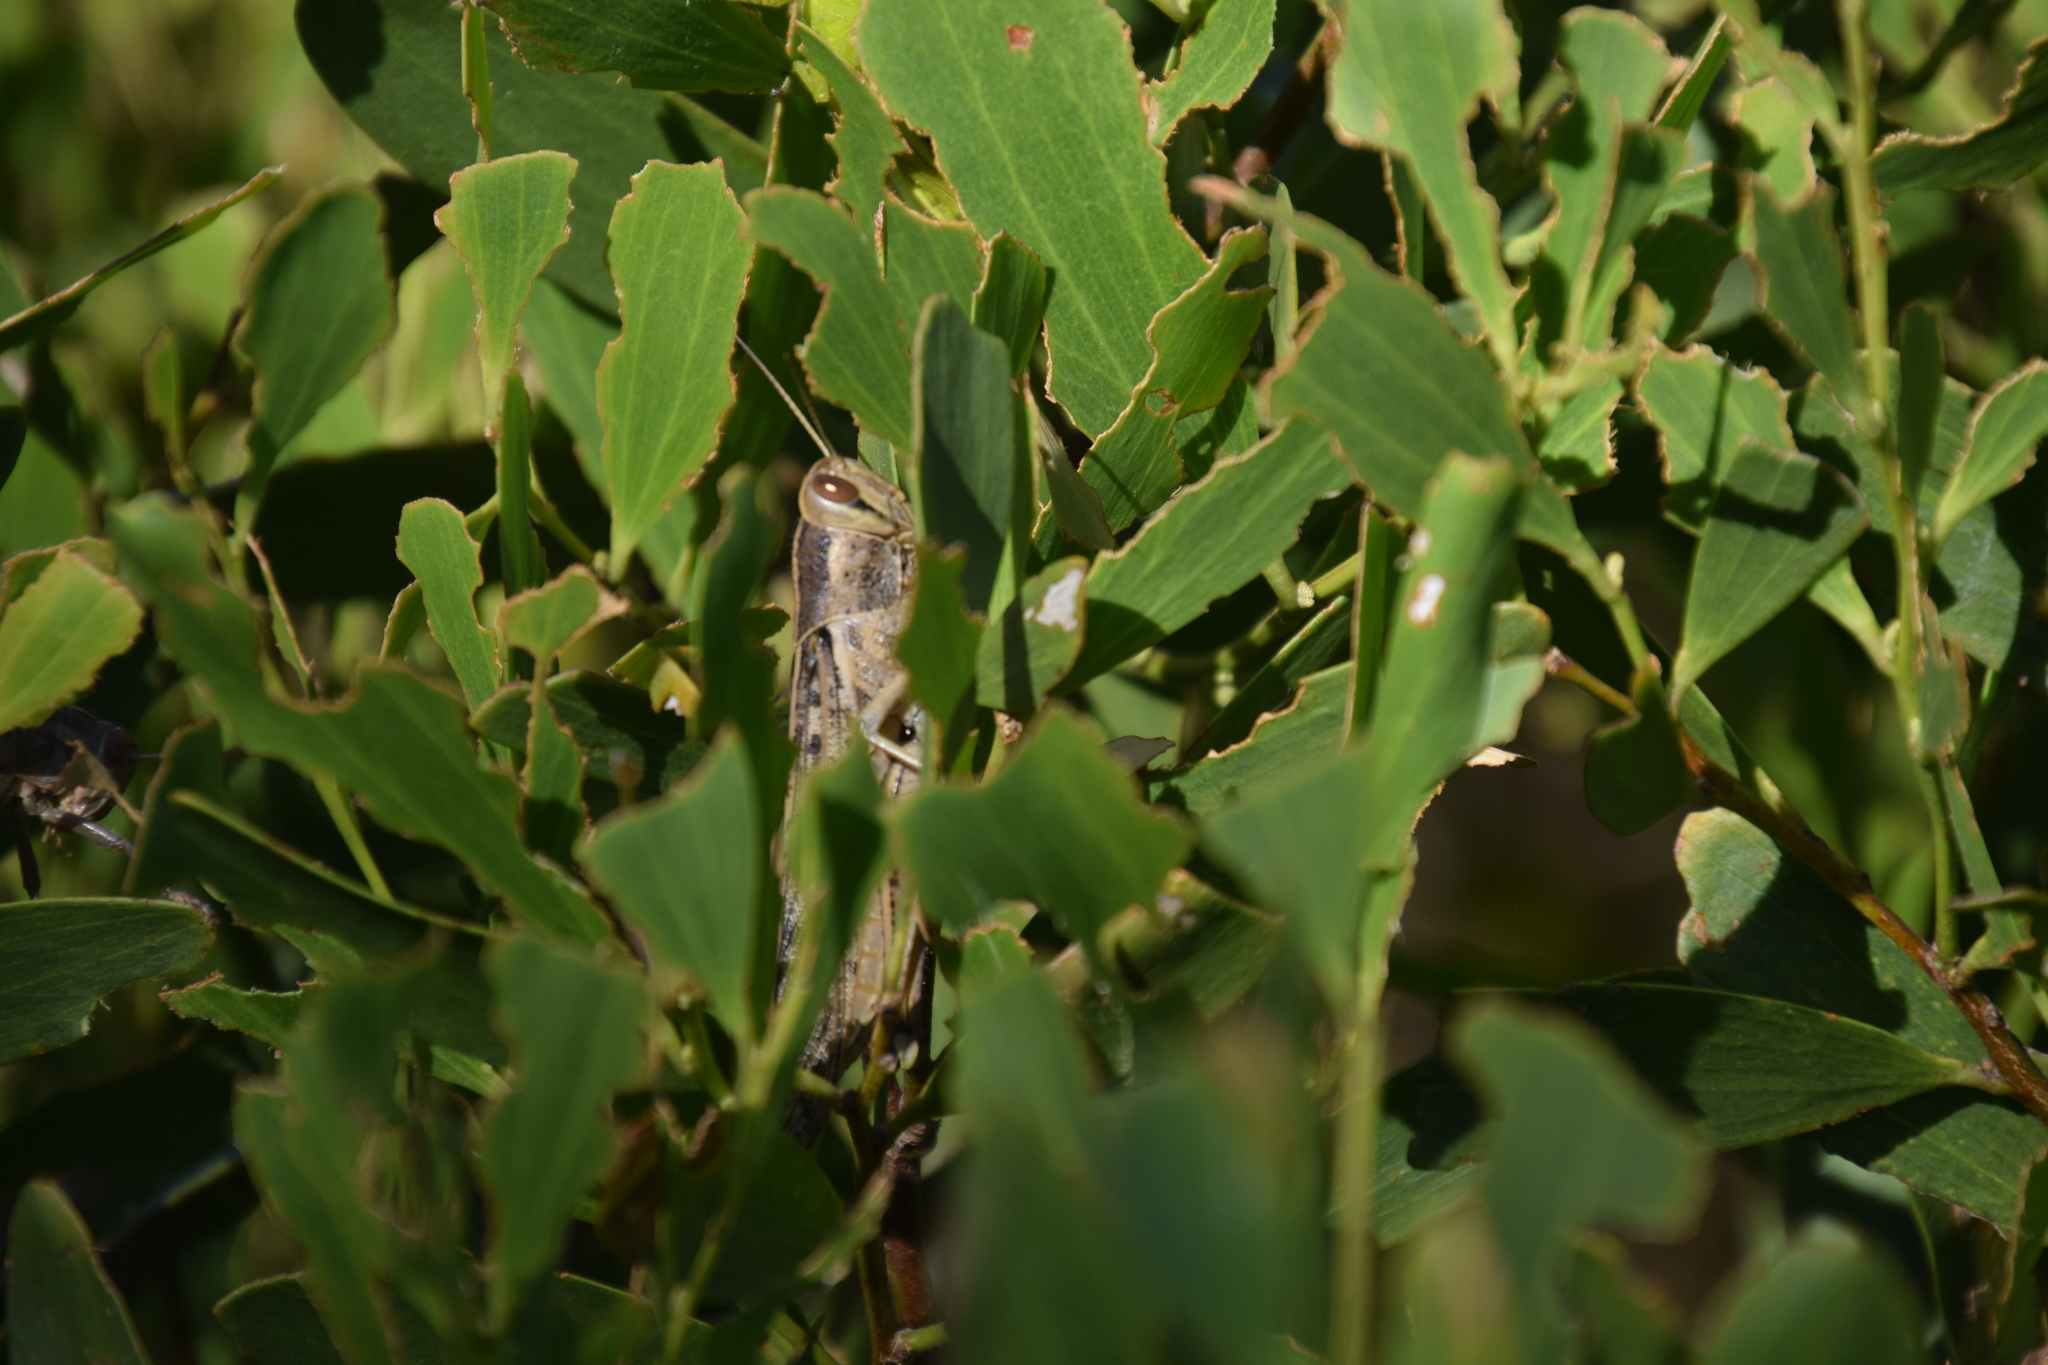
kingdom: Animalia
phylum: Arthropoda
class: Insecta
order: Orthoptera
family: Acrididae
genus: Austracris
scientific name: Austracris proxima
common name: Confusing spur-throated locust
